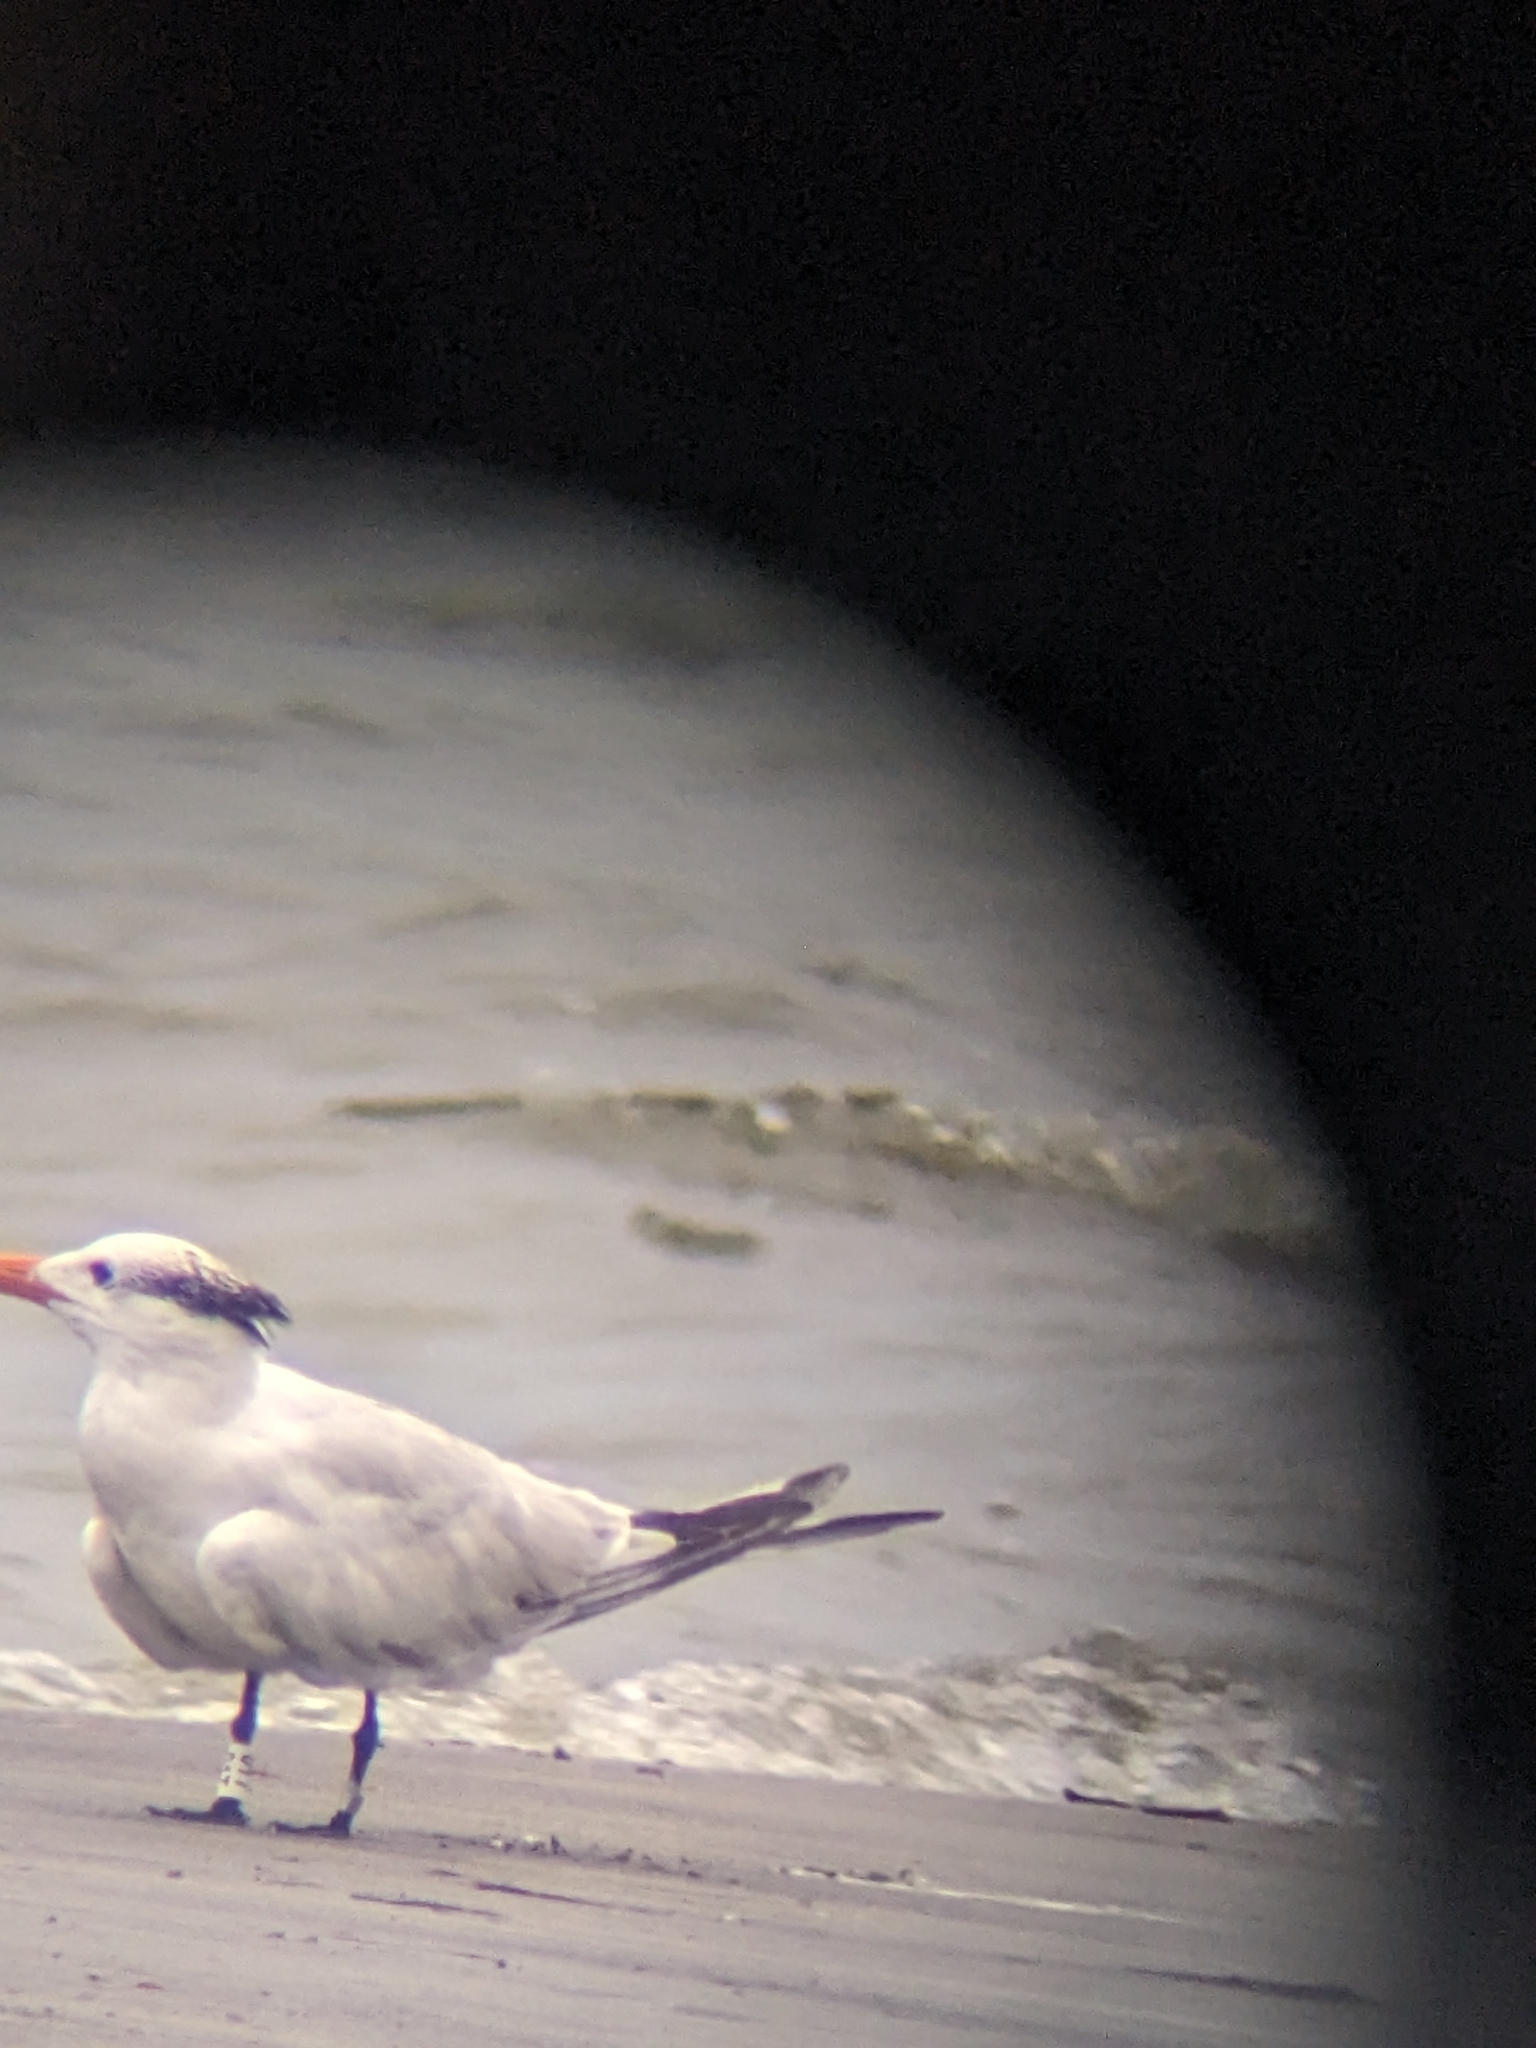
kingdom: Animalia
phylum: Chordata
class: Aves
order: Charadriiformes
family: Laridae
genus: Thalasseus
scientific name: Thalasseus maximus
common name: Royal tern
